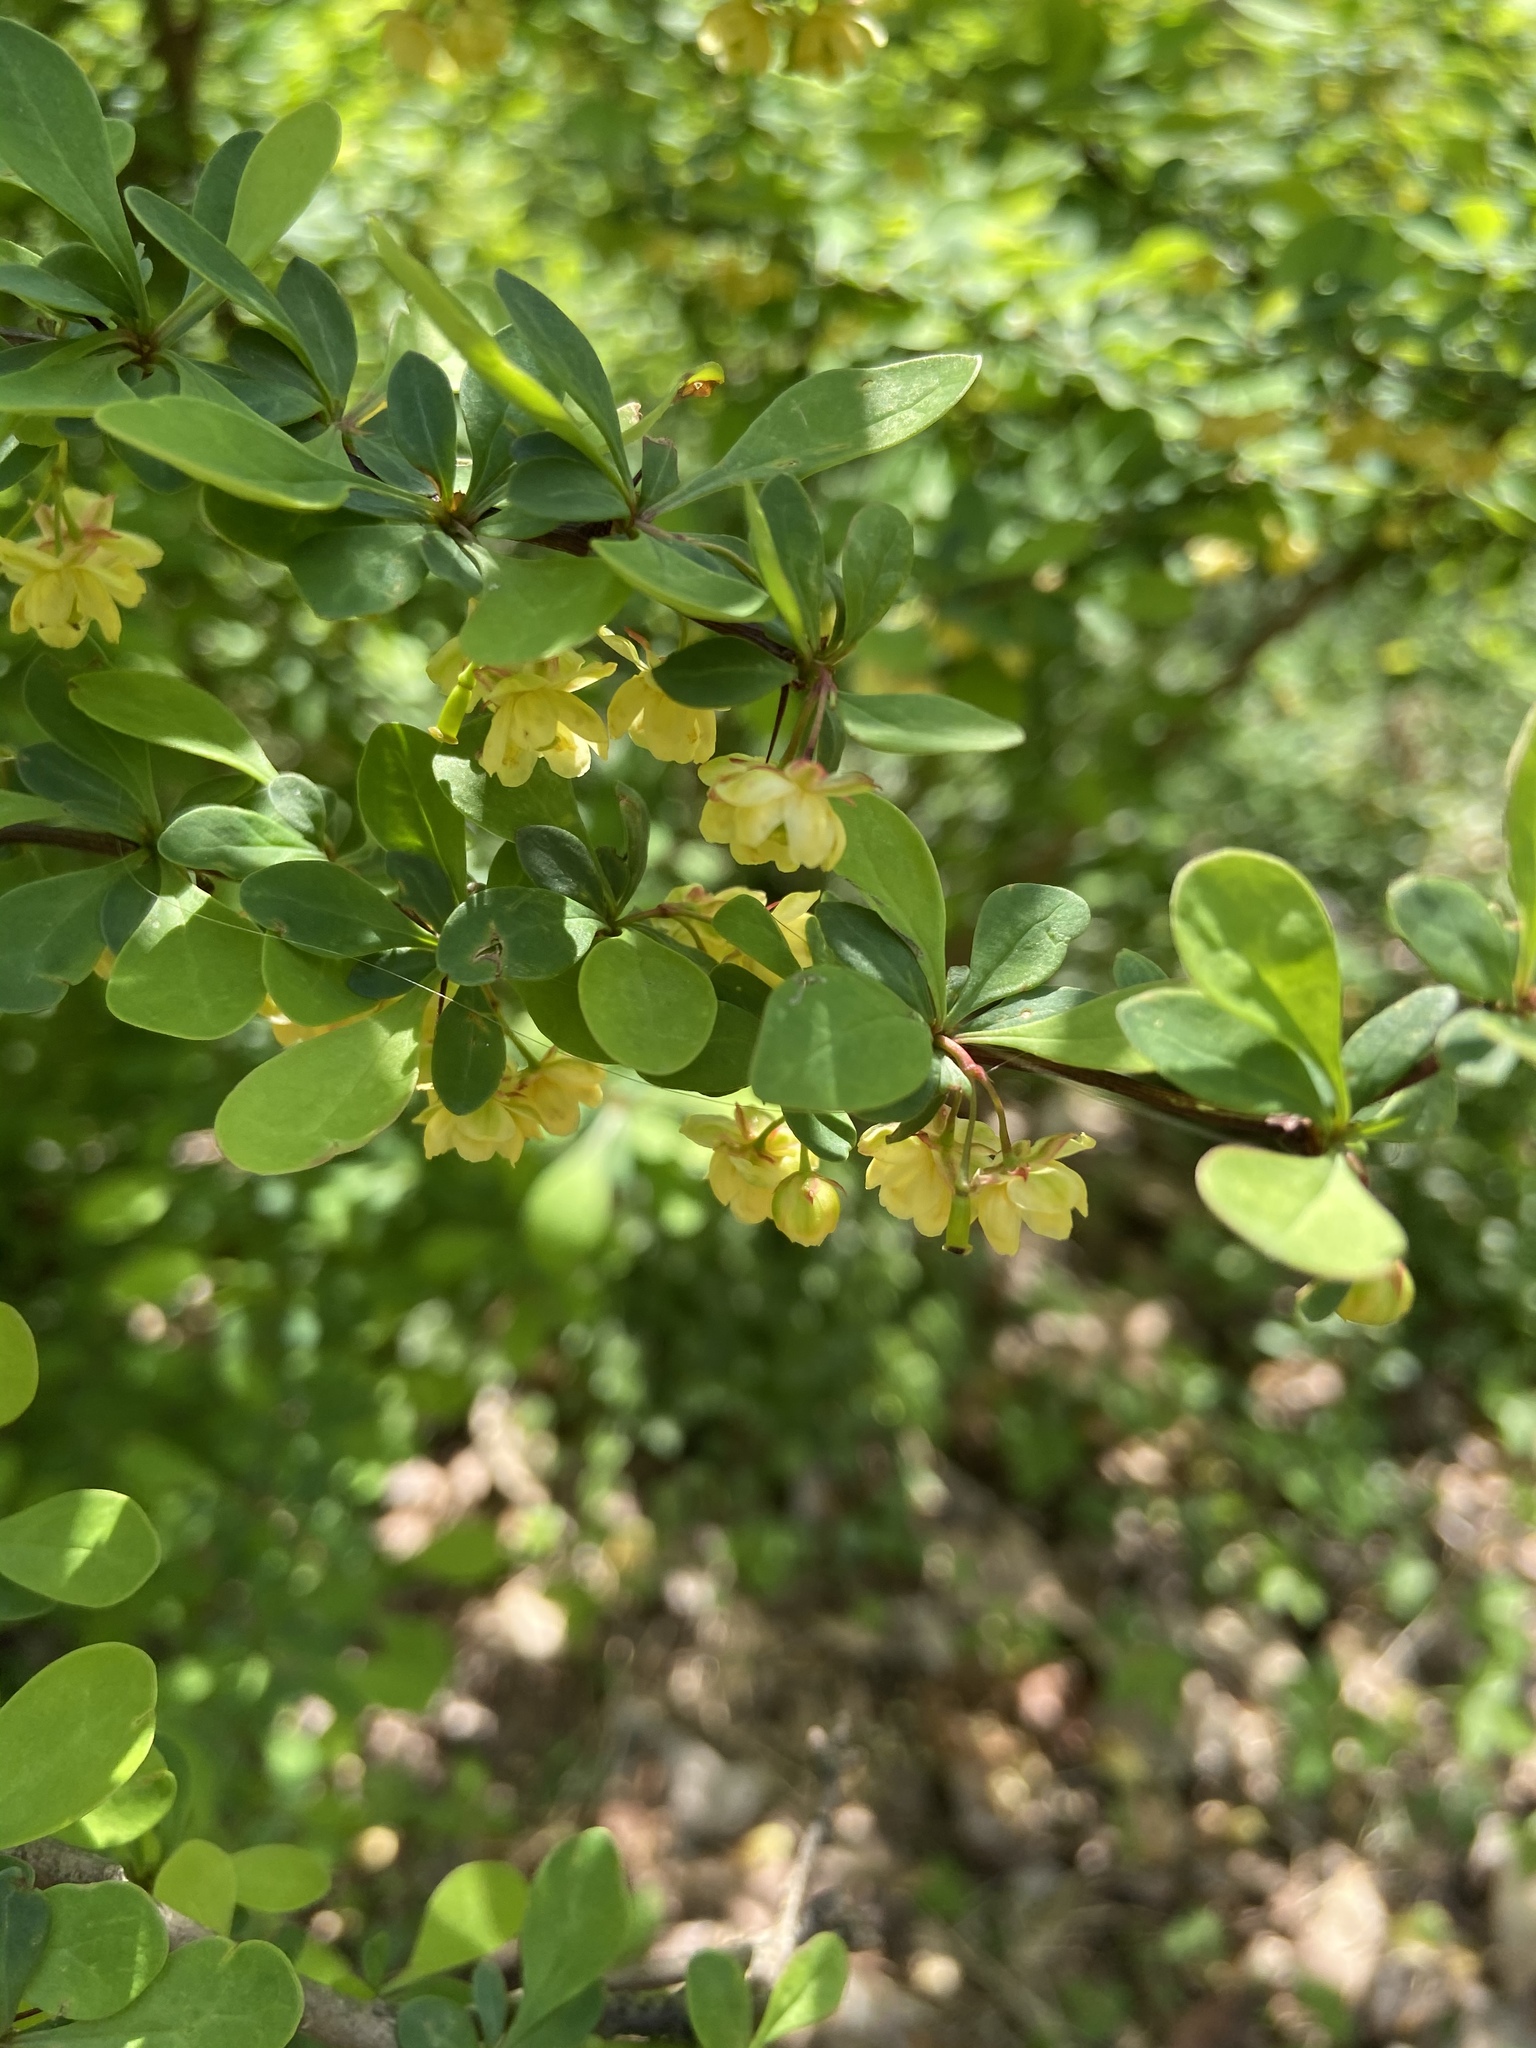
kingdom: Plantae
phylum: Tracheophyta
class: Magnoliopsida
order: Ranunculales
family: Berberidaceae
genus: Berberis
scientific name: Berberis thunbergii
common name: Japanese barberry
